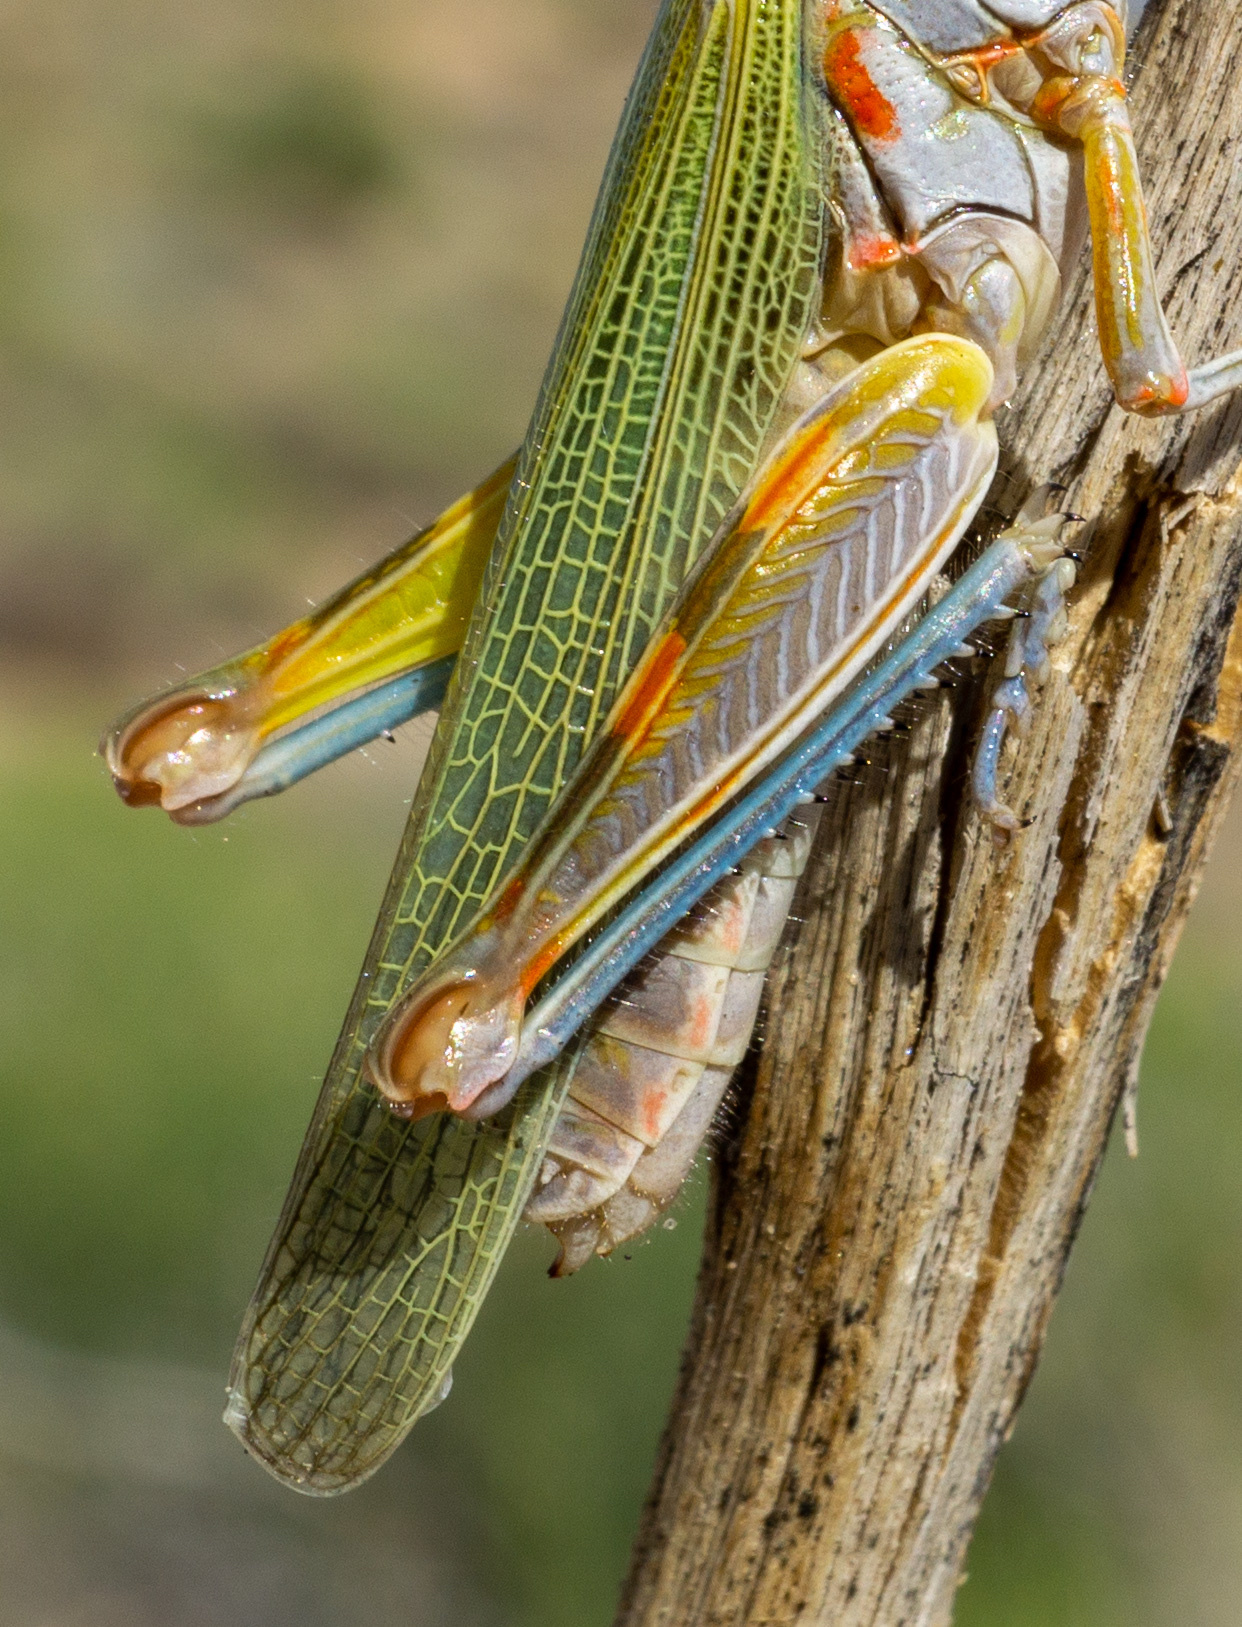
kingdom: Animalia
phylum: Arthropoda
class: Insecta
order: Orthoptera
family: Acrididae
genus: Poecilotettix
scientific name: Poecilotettix sanguineus
